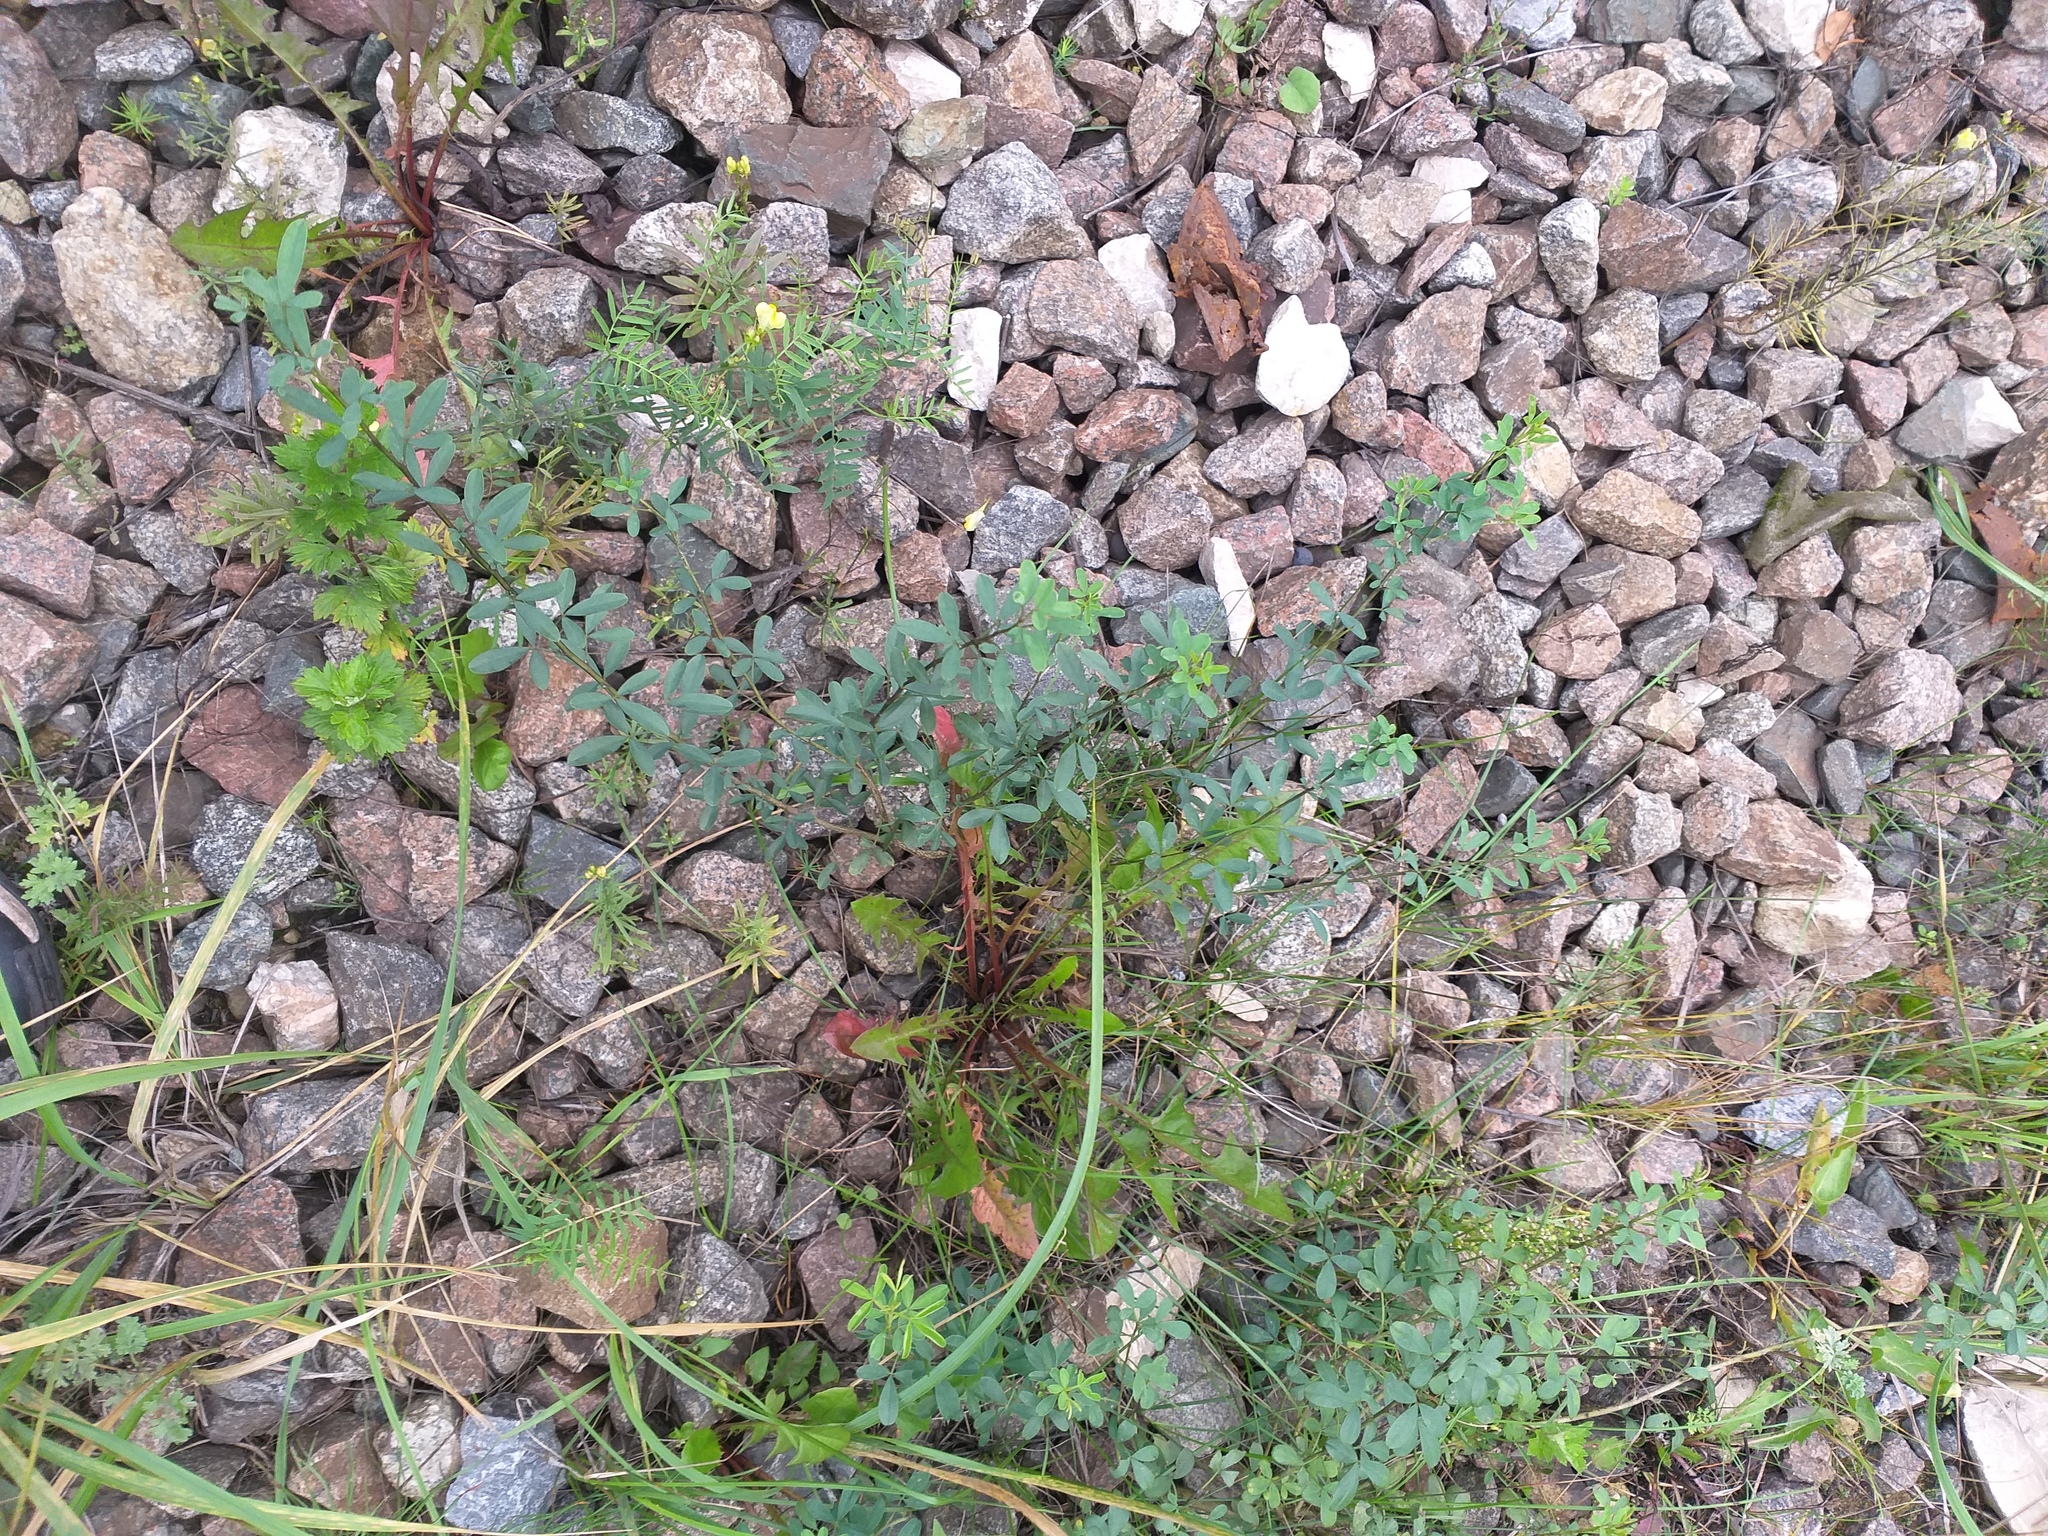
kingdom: Plantae
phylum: Tracheophyta
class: Magnoliopsida
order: Fabales
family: Fabaceae
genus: Chamaecytisus
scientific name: Chamaecytisus ruthenicus
